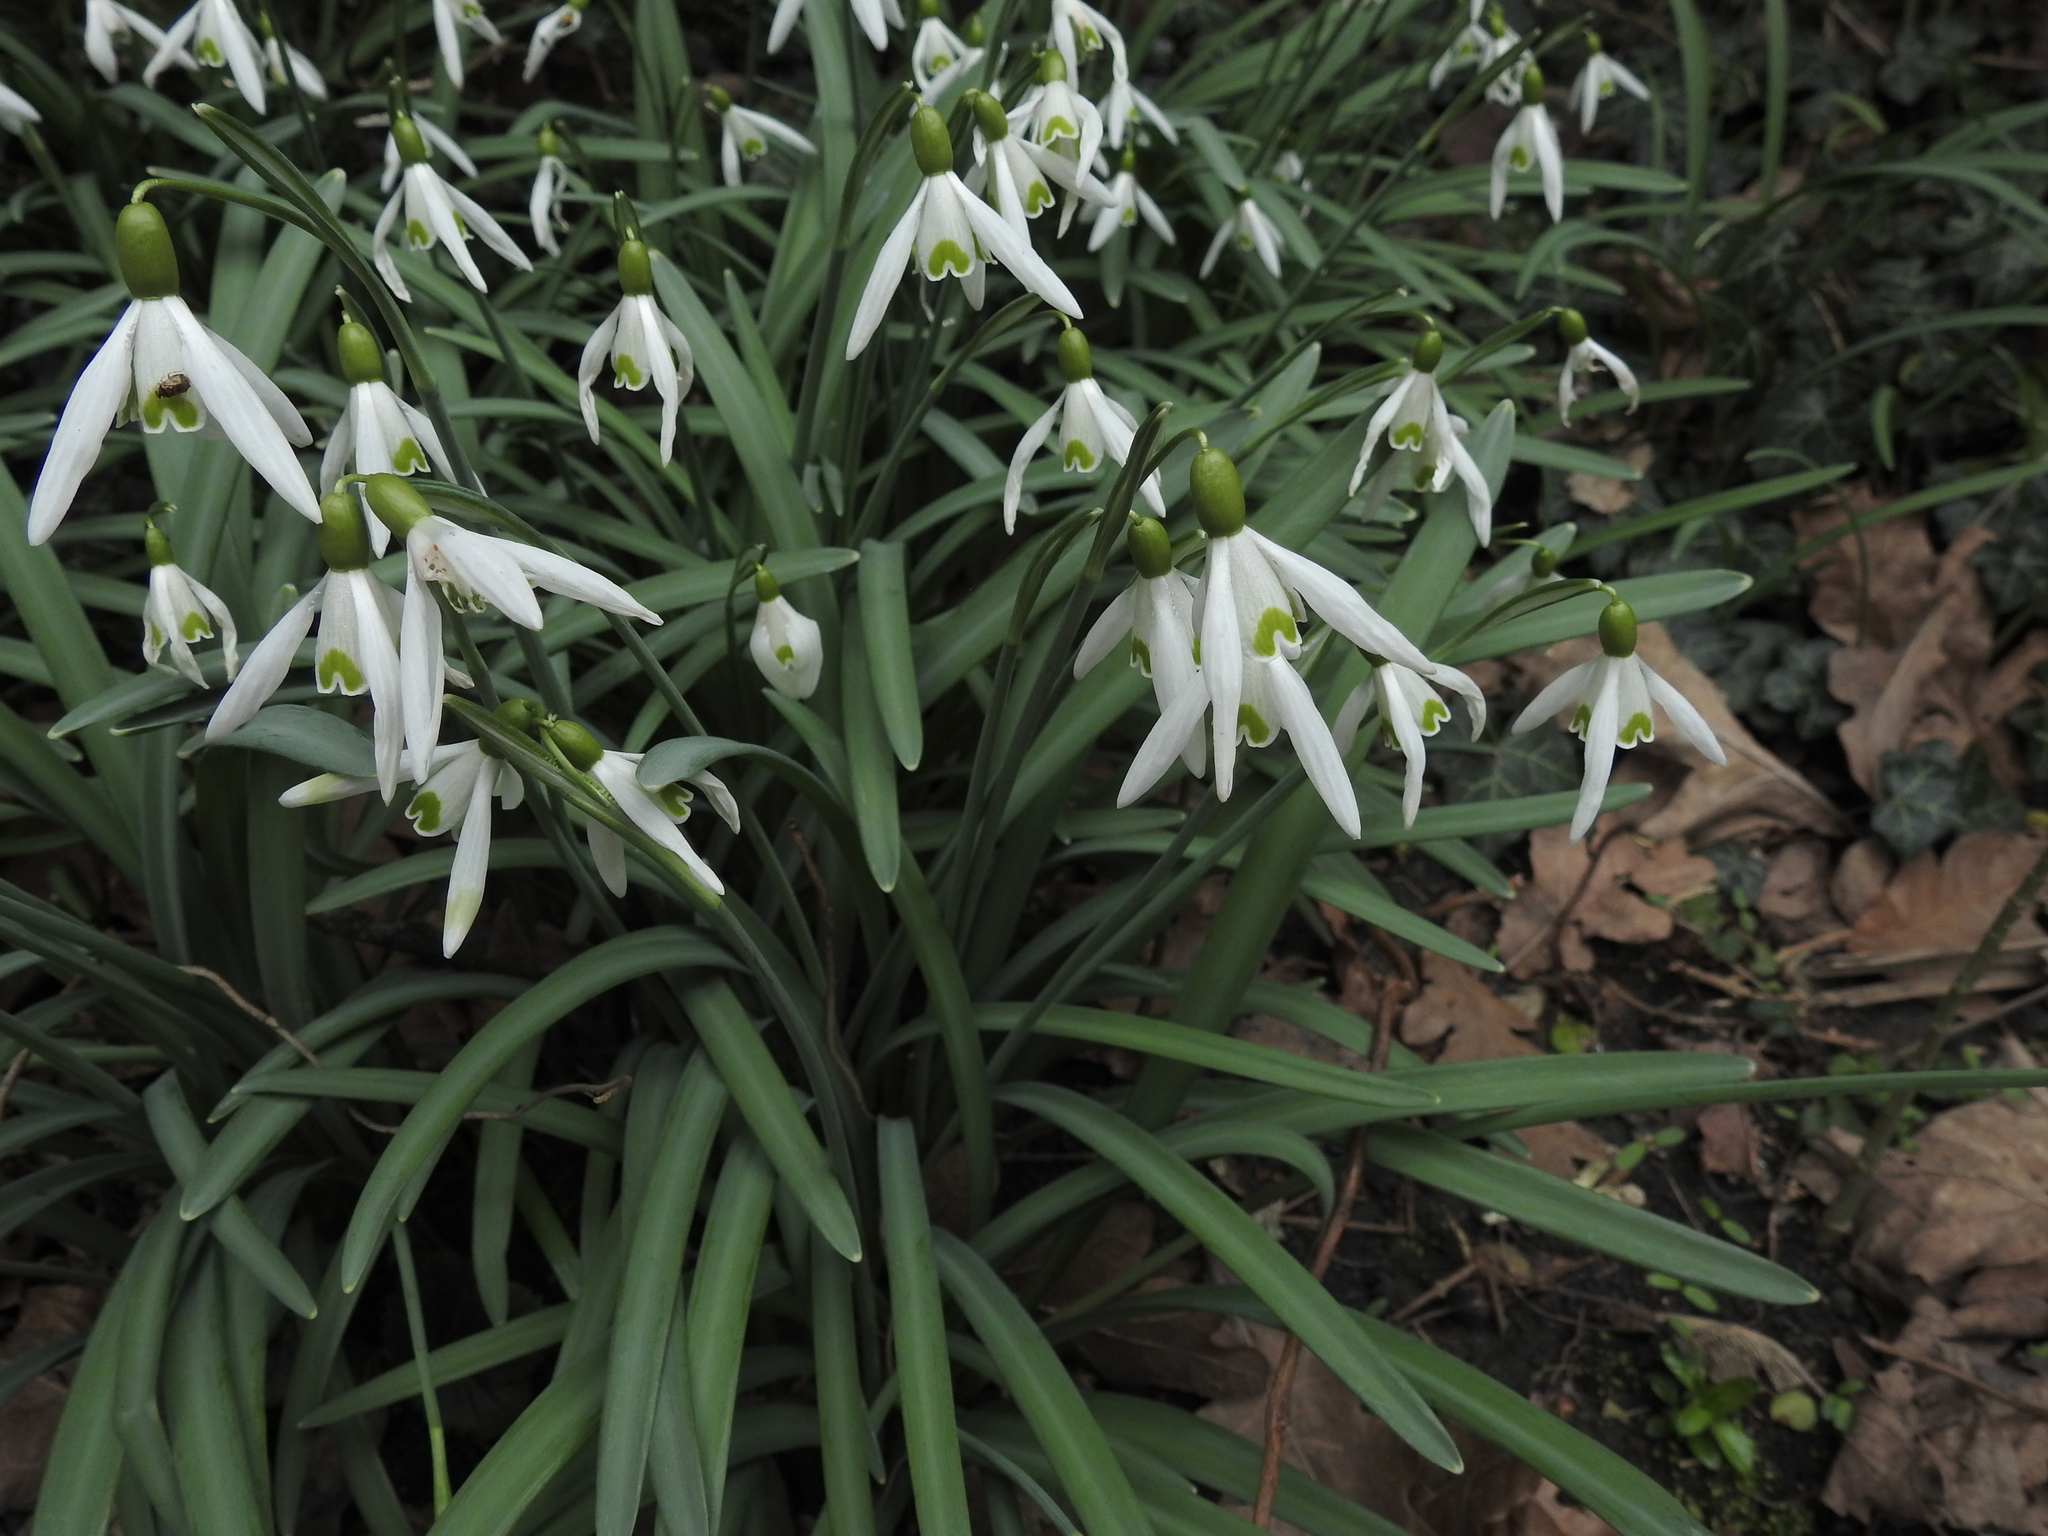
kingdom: Plantae
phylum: Tracheophyta
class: Liliopsida
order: Asparagales
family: Amaryllidaceae
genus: Galanthus
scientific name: Galanthus nivalis
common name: Snowdrop
